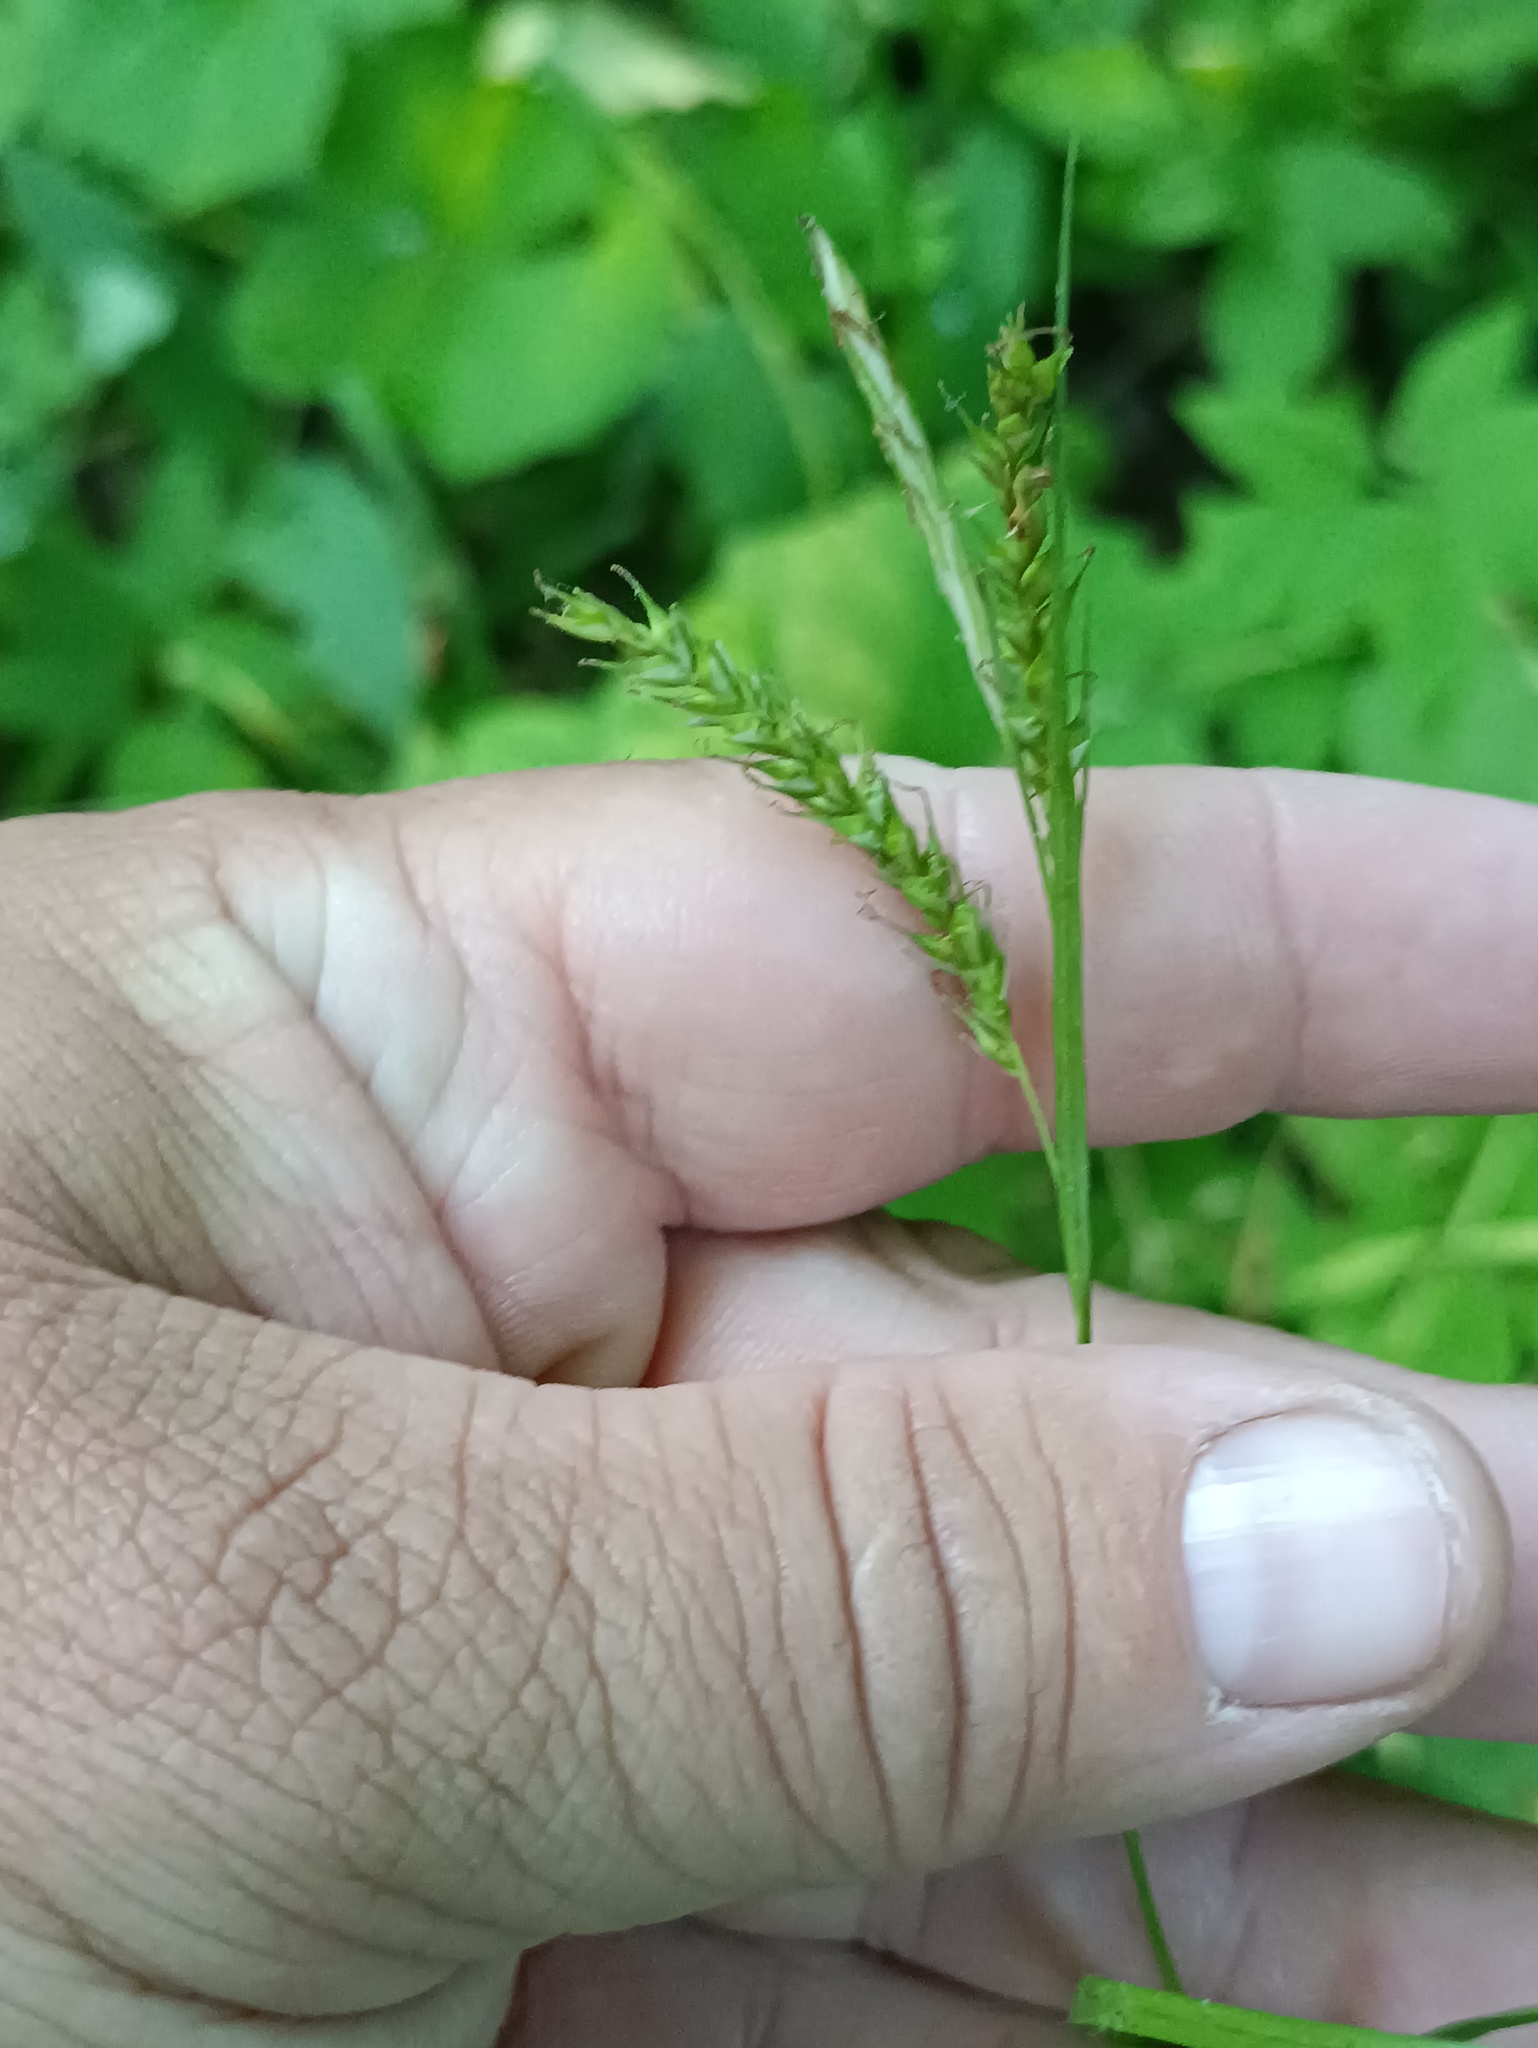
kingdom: Plantae
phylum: Tracheophyta
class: Liliopsida
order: Poales
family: Cyperaceae
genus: Carex
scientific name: Carex sylvatica
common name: Wood-sedge
